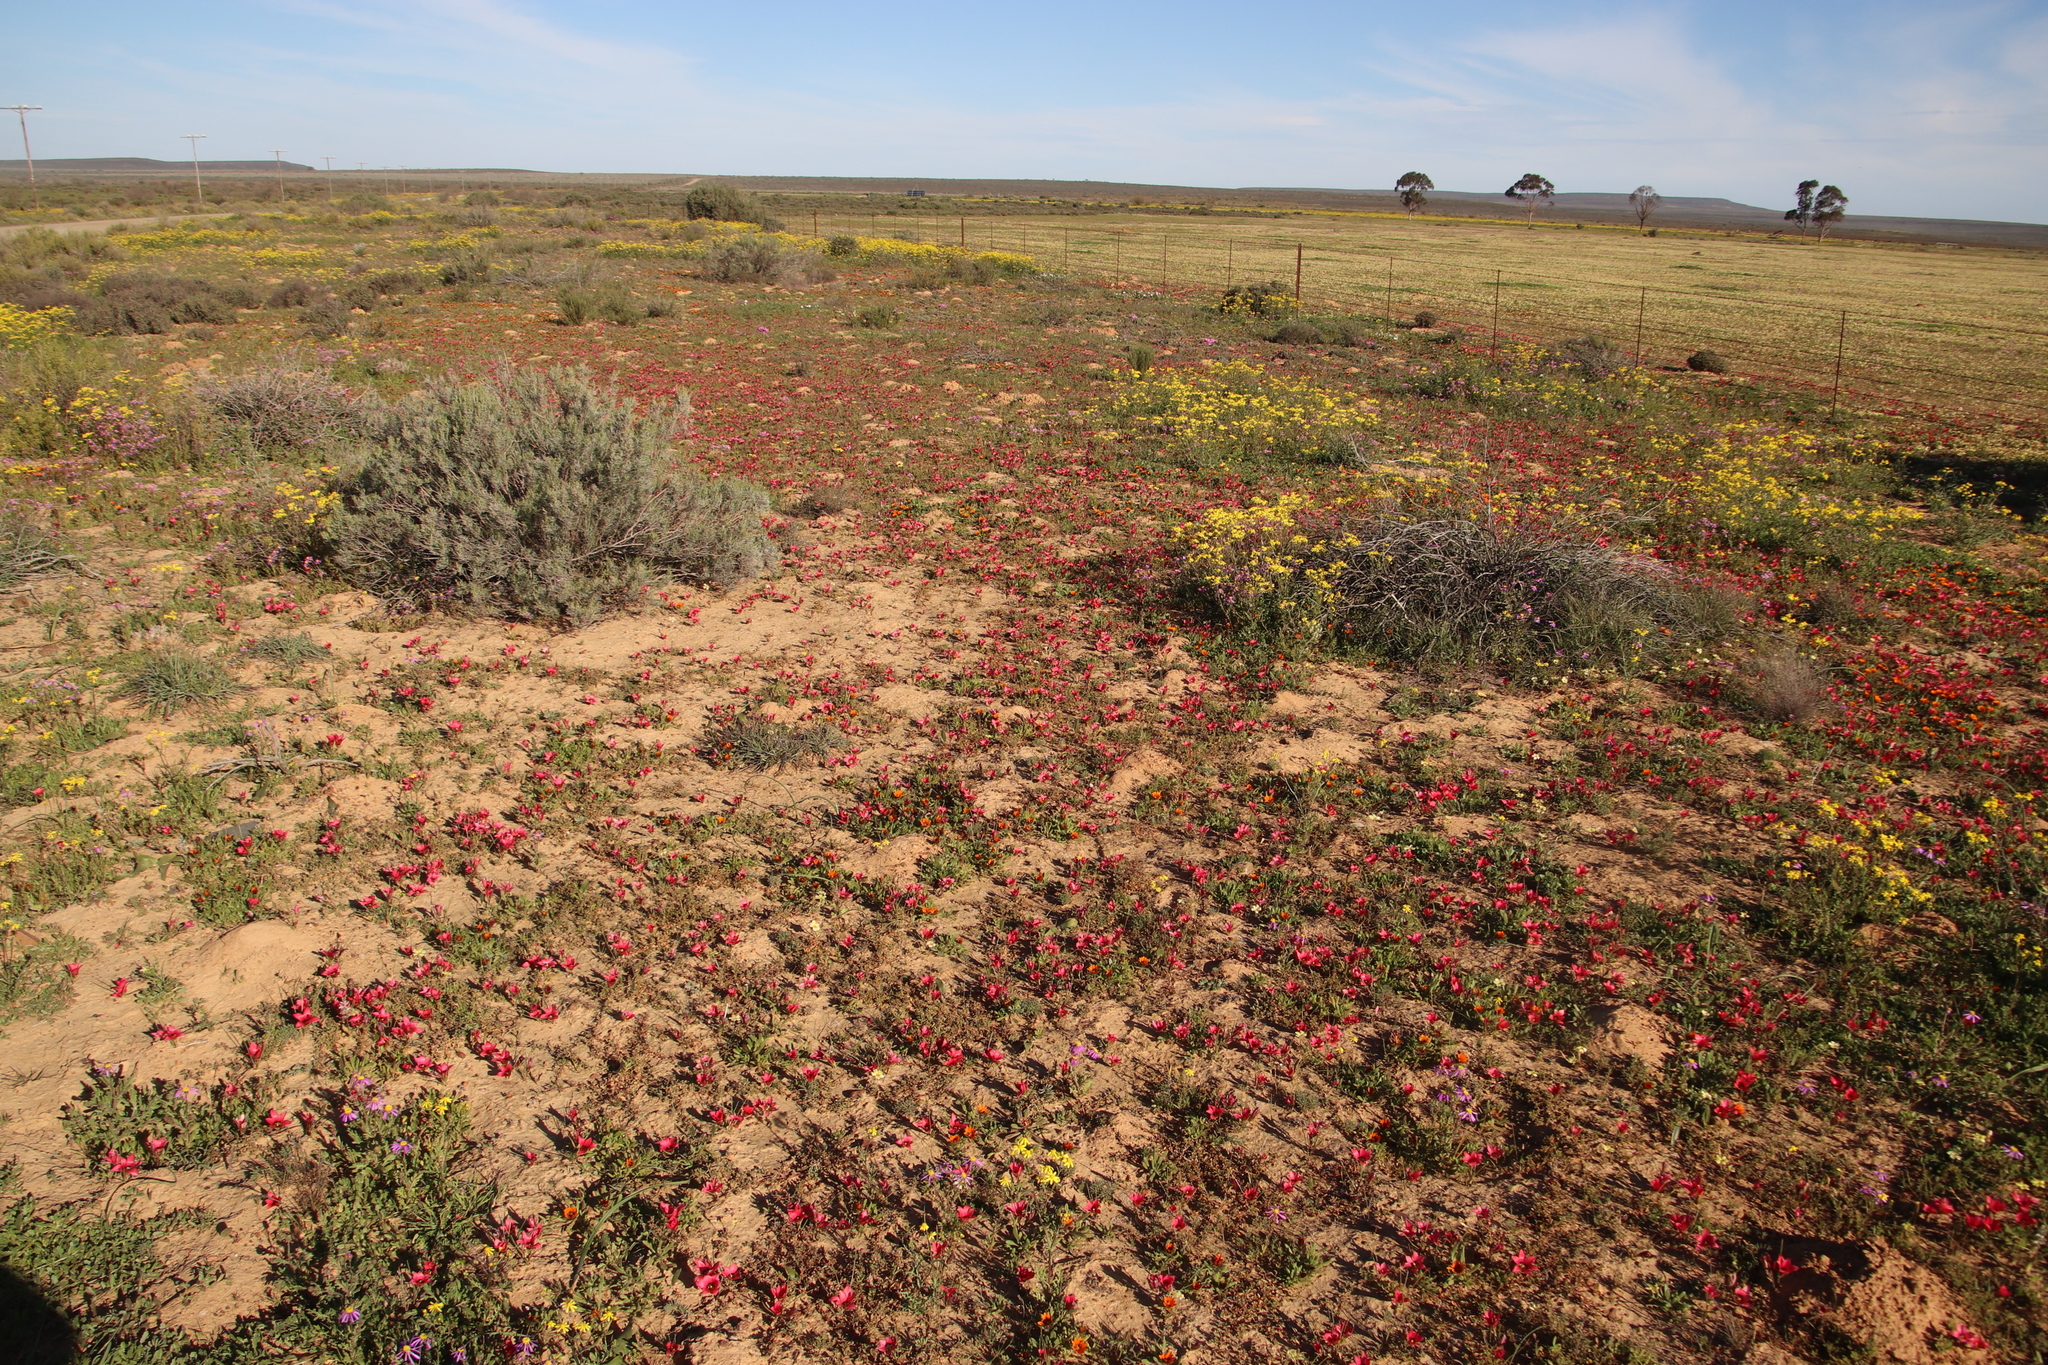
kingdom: Plantae
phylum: Tracheophyta
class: Liliopsida
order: Asparagales
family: Iridaceae
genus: Romulea
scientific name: Romulea pudica
